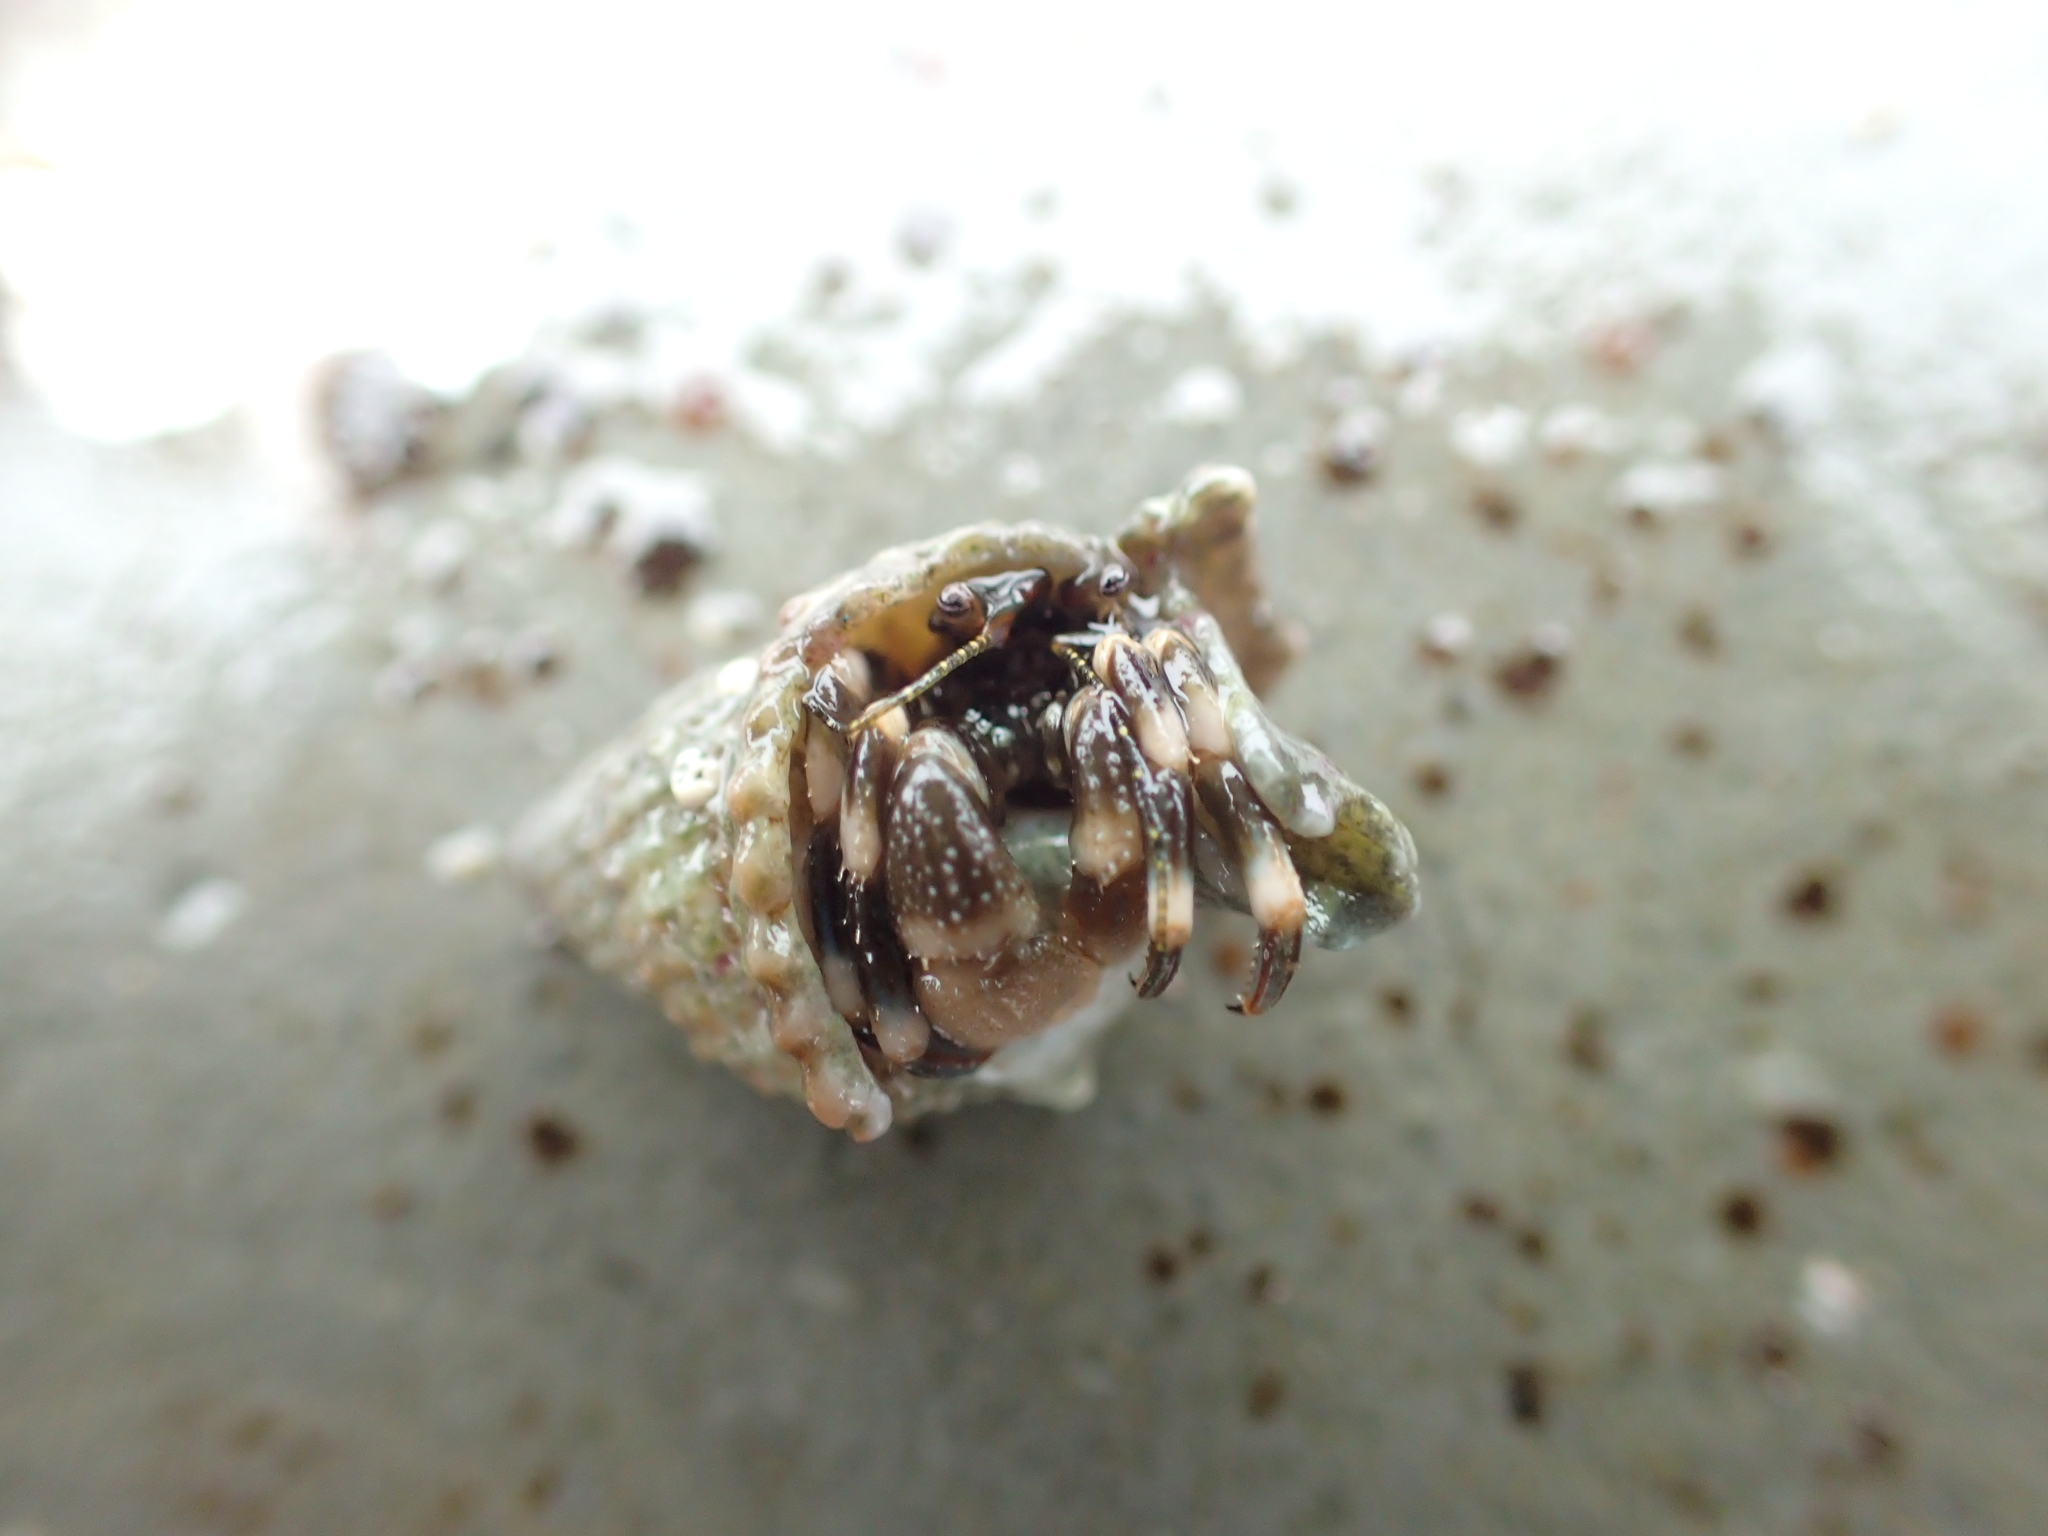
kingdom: Animalia
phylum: Arthropoda
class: Malacostraca
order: Decapoda
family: Paguridae
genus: Pagurus
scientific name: Pagurus hirsutiusculus
